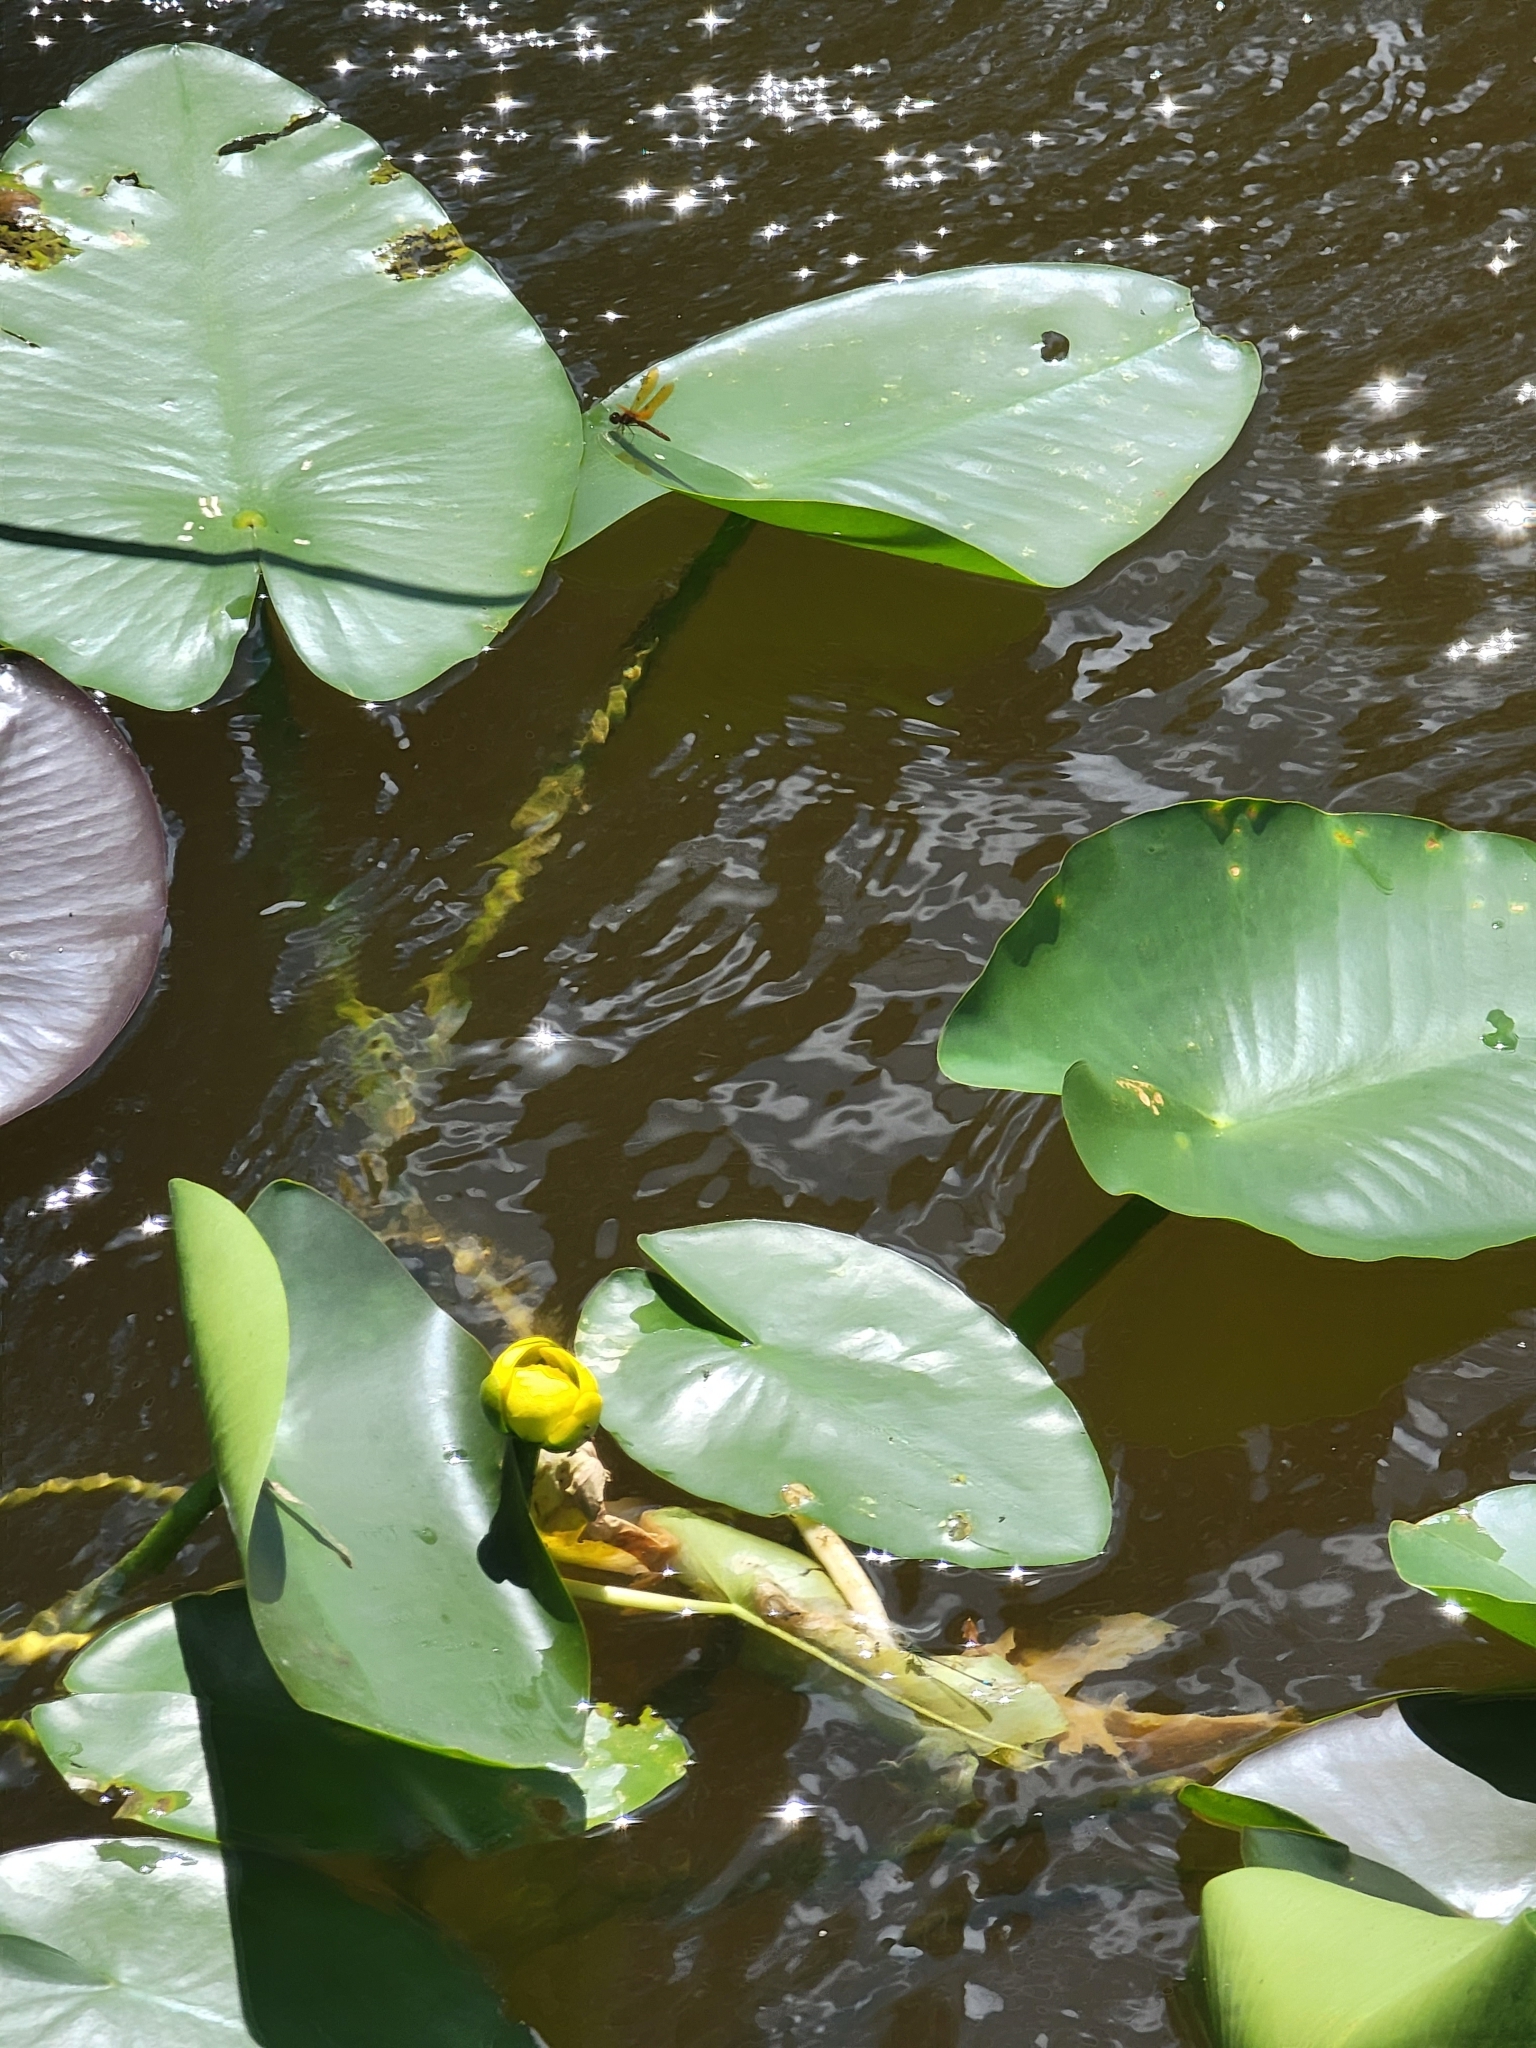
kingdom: Plantae
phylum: Tracheophyta
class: Magnoliopsida
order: Nymphaeales
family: Nymphaeaceae
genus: Nuphar
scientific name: Nuphar advena
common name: Spatter-dock
